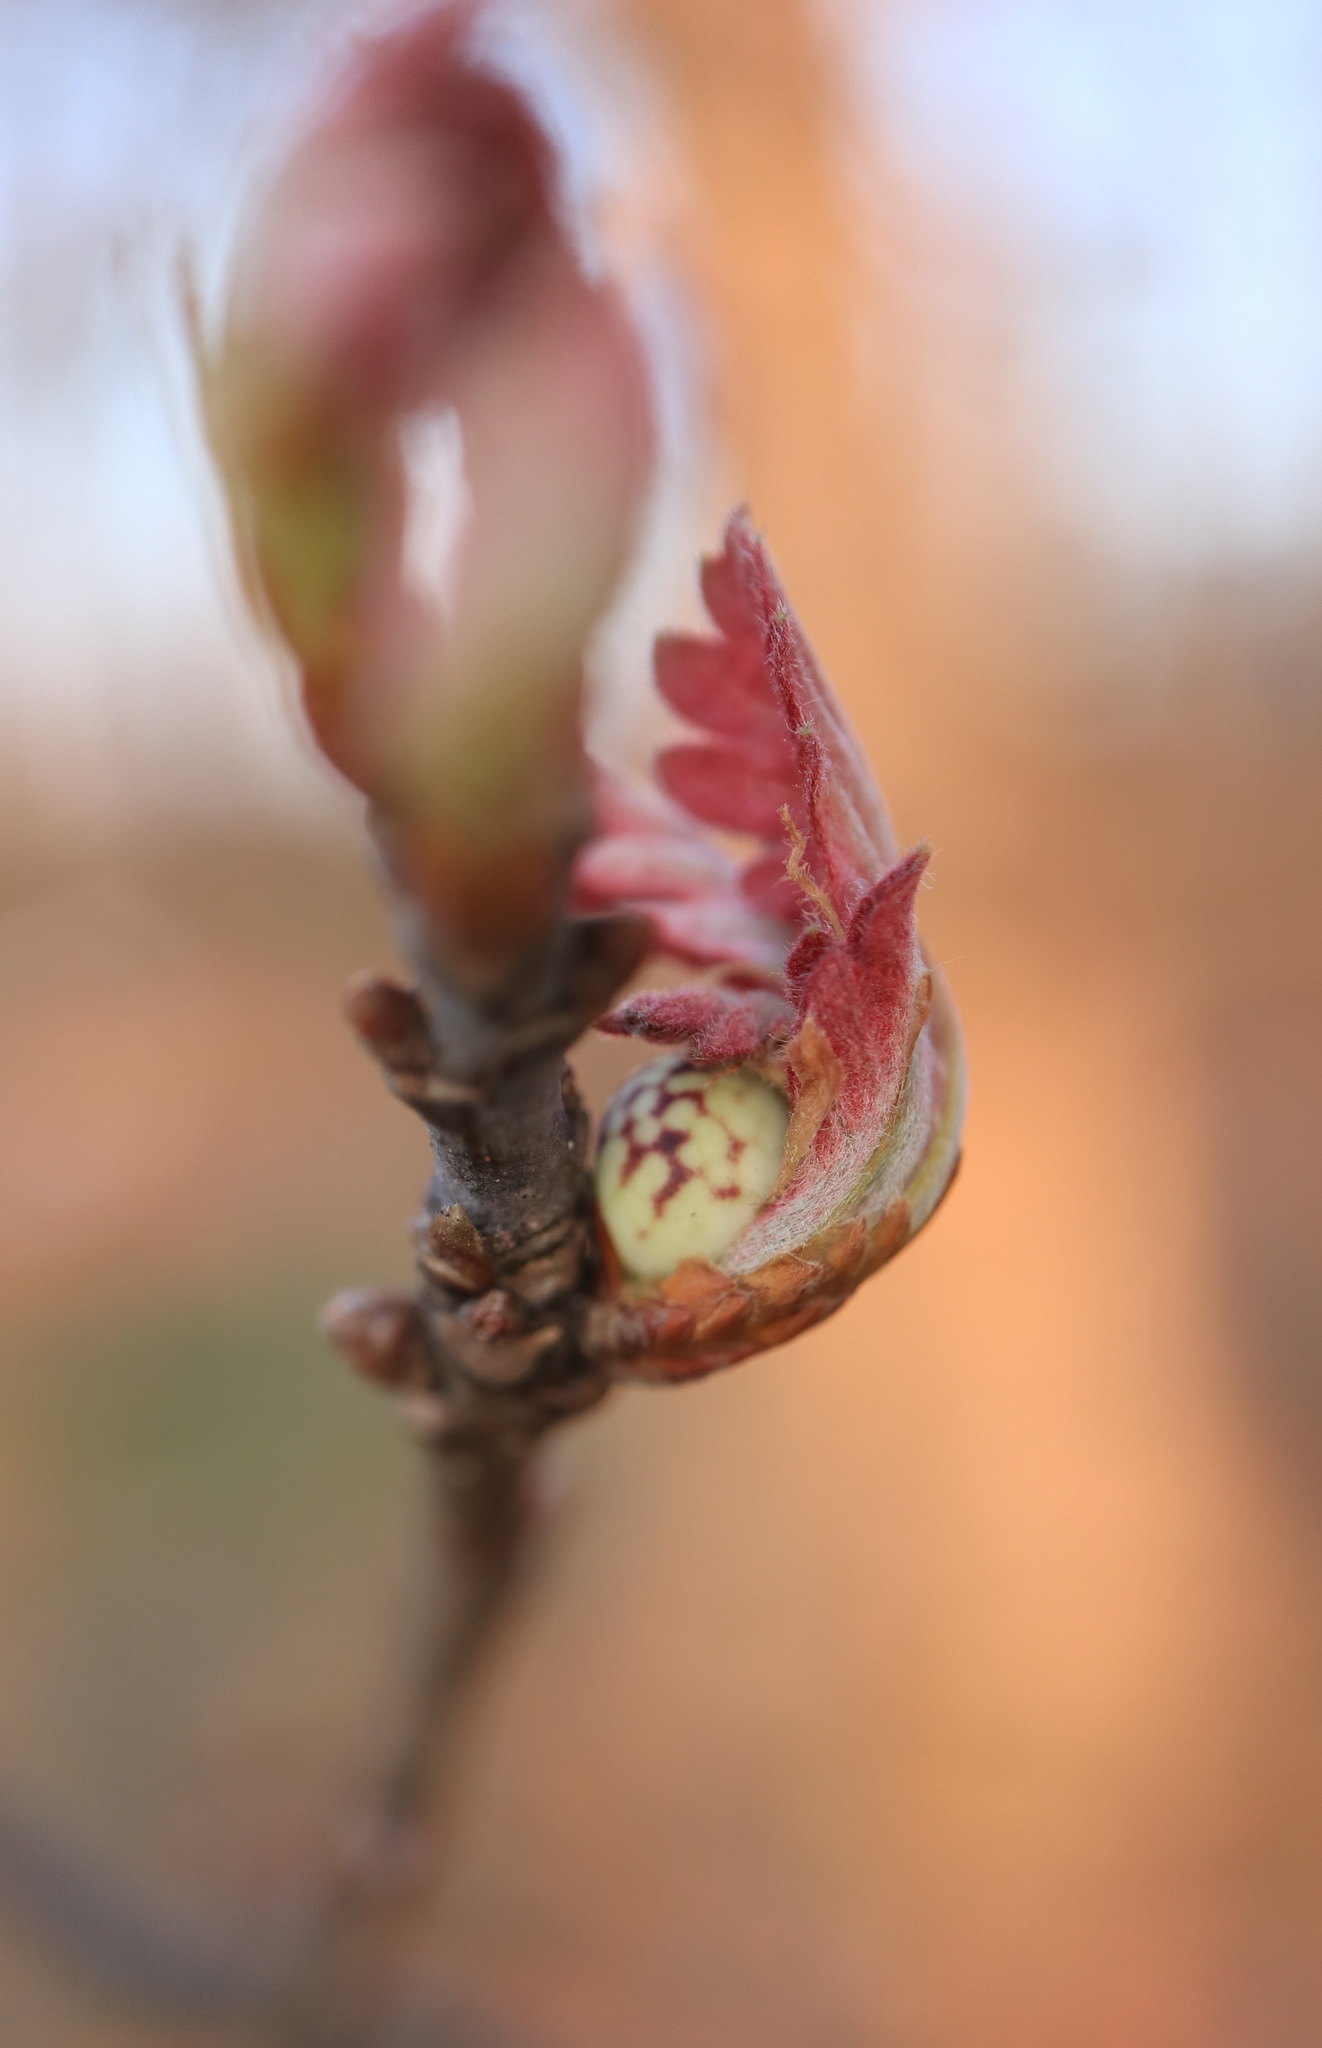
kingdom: Animalia
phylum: Arthropoda
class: Insecta
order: Hymenoptera
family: Cynipidae
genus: Andricus
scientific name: Andricus
